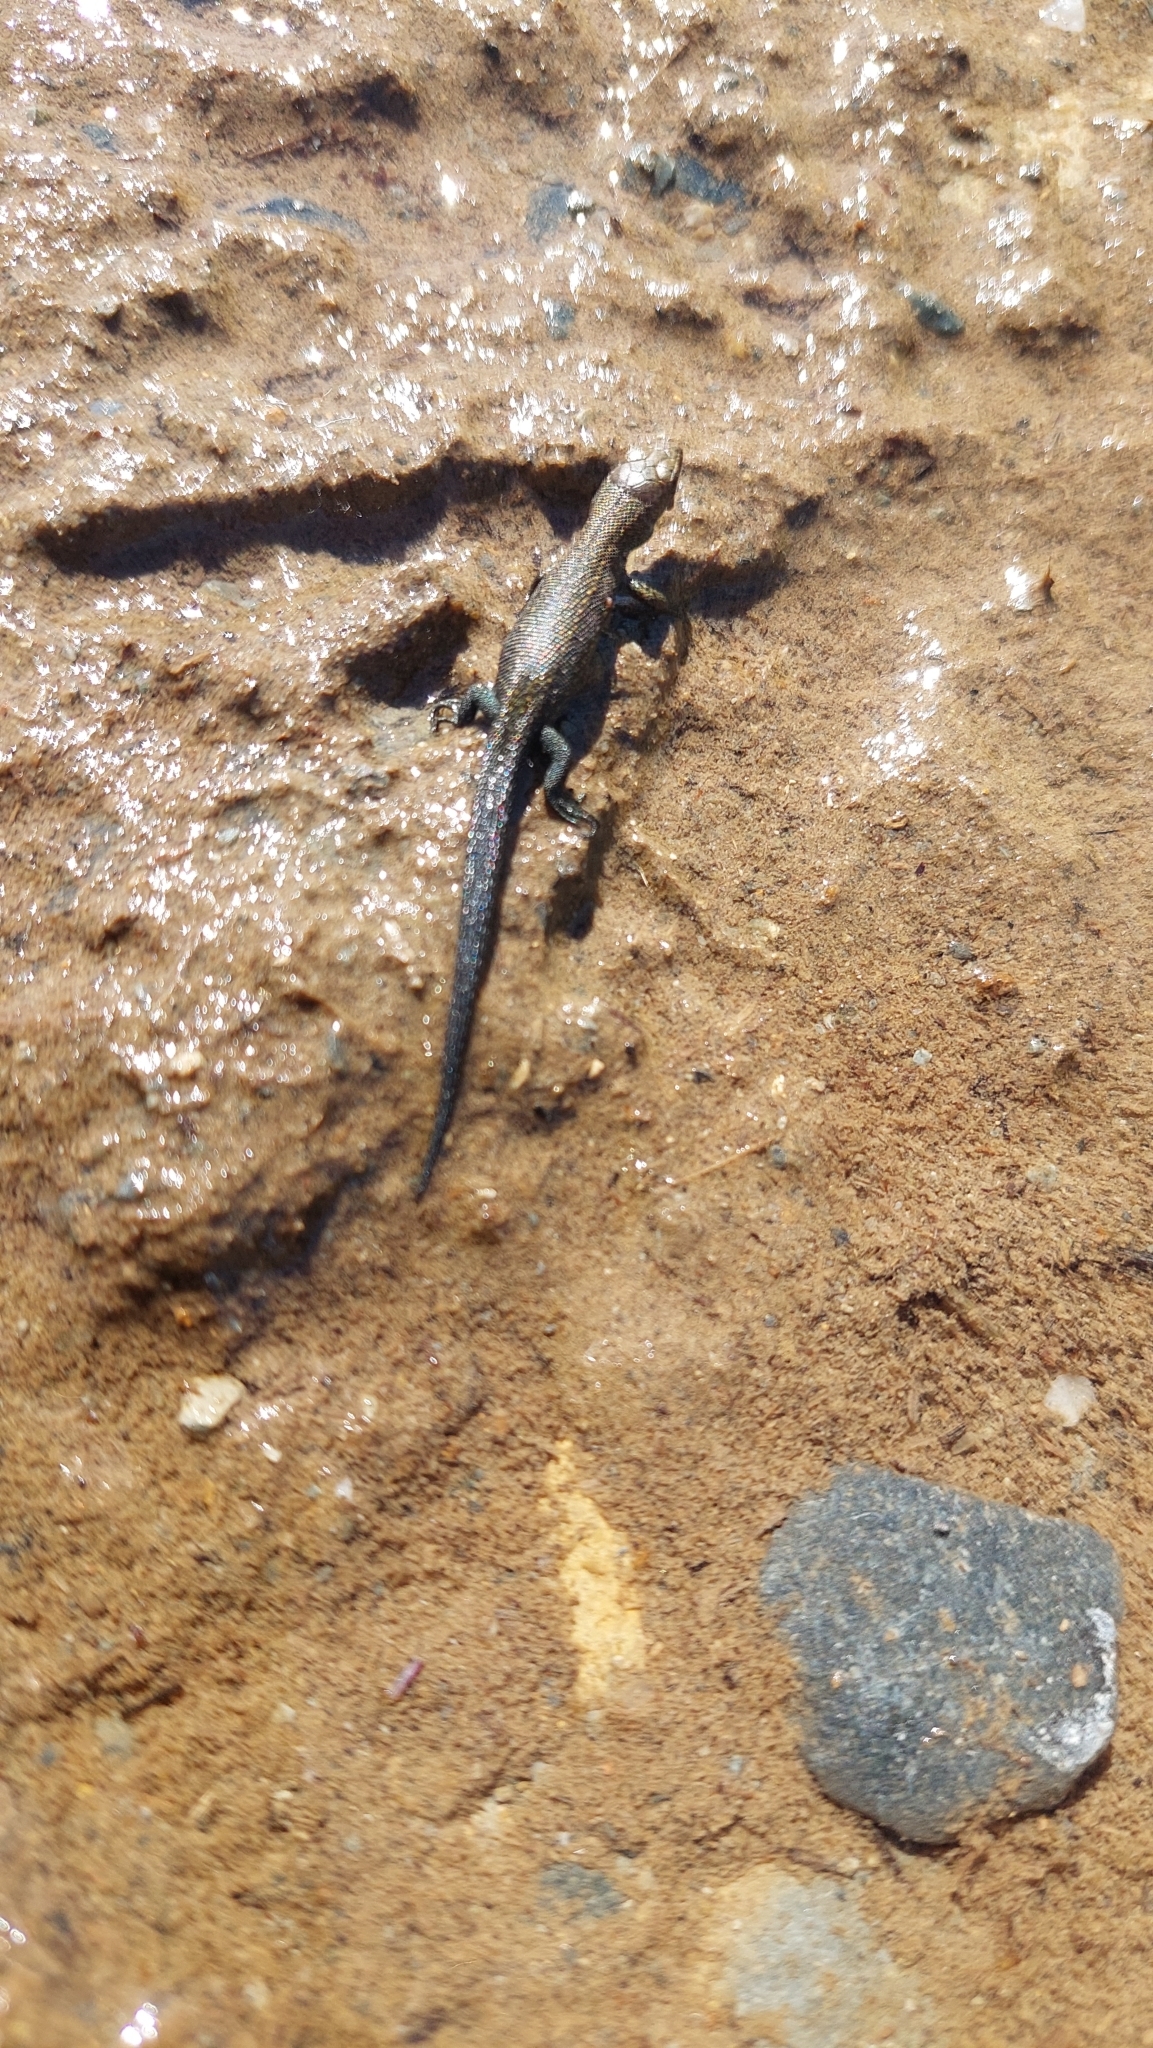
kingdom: Animalia
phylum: Chordata
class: Squamata
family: Lacertidae
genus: Zootoca
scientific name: Zootoca vivipara
